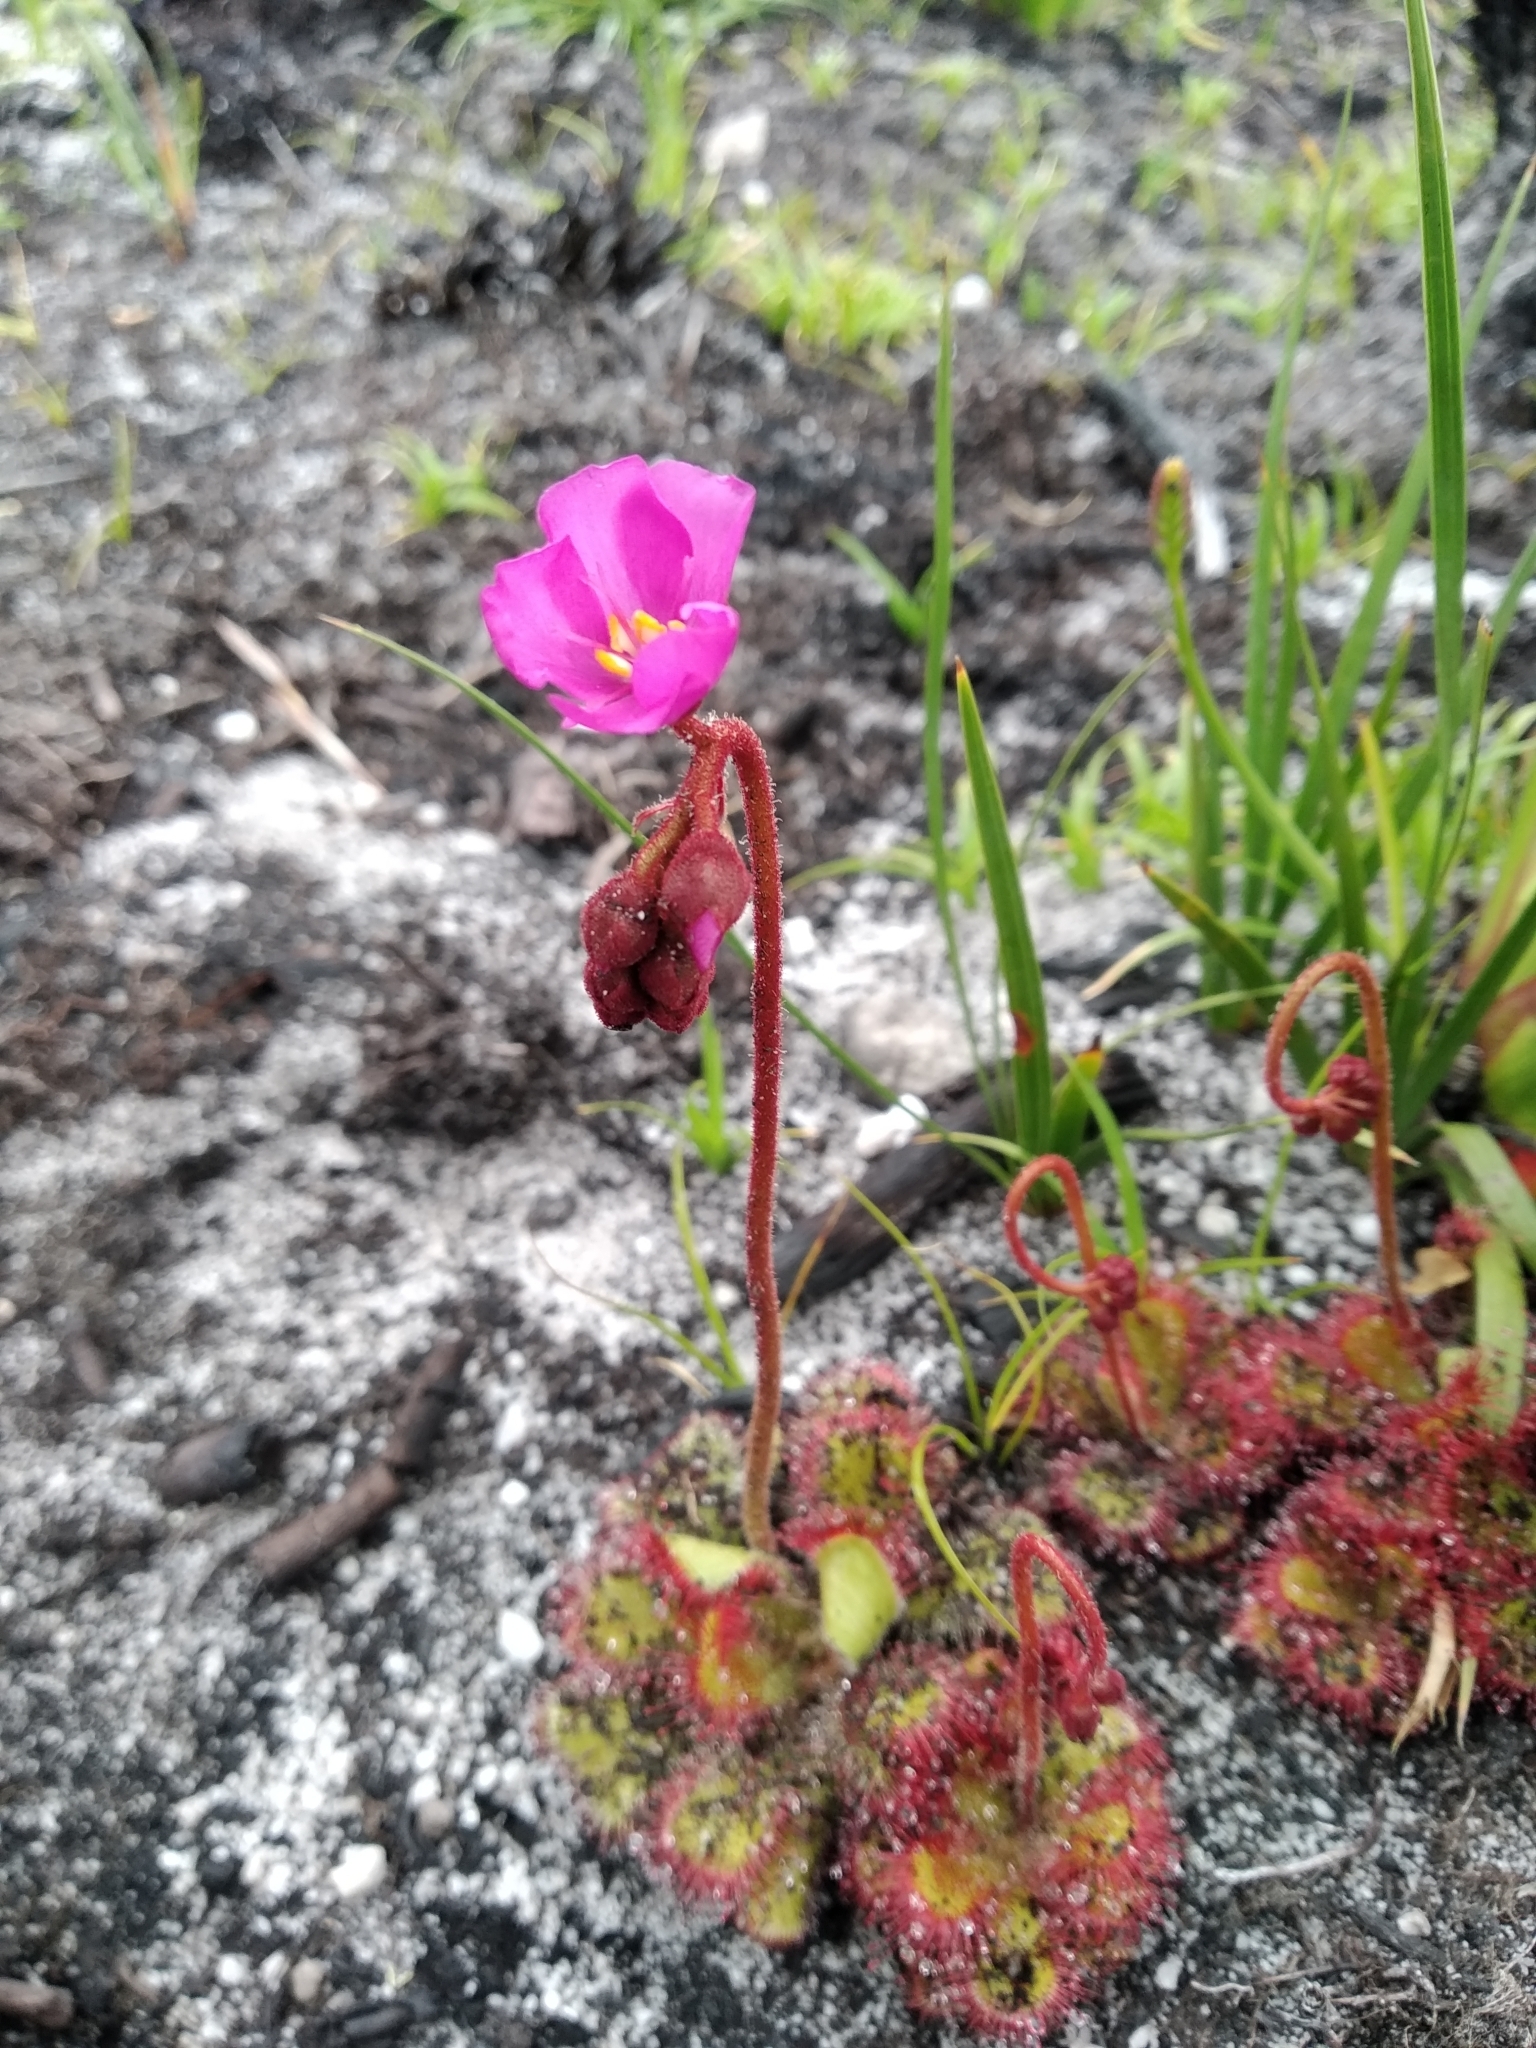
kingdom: Plantae
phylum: Tracheophyta
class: Magnoliopsida
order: Caryophyllales
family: Droseraceae
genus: Drosera
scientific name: Drosera cuneifolia
